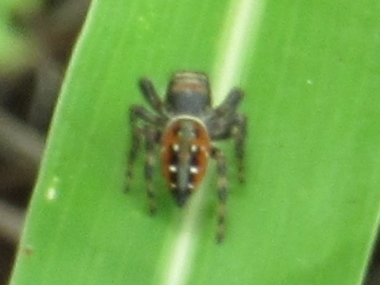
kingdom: Animalia
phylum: Arthropoda
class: Arachnida
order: Araneae
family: Salticidae
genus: Phidippus
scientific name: Phidippus clarus
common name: Brilliant jumping spider
